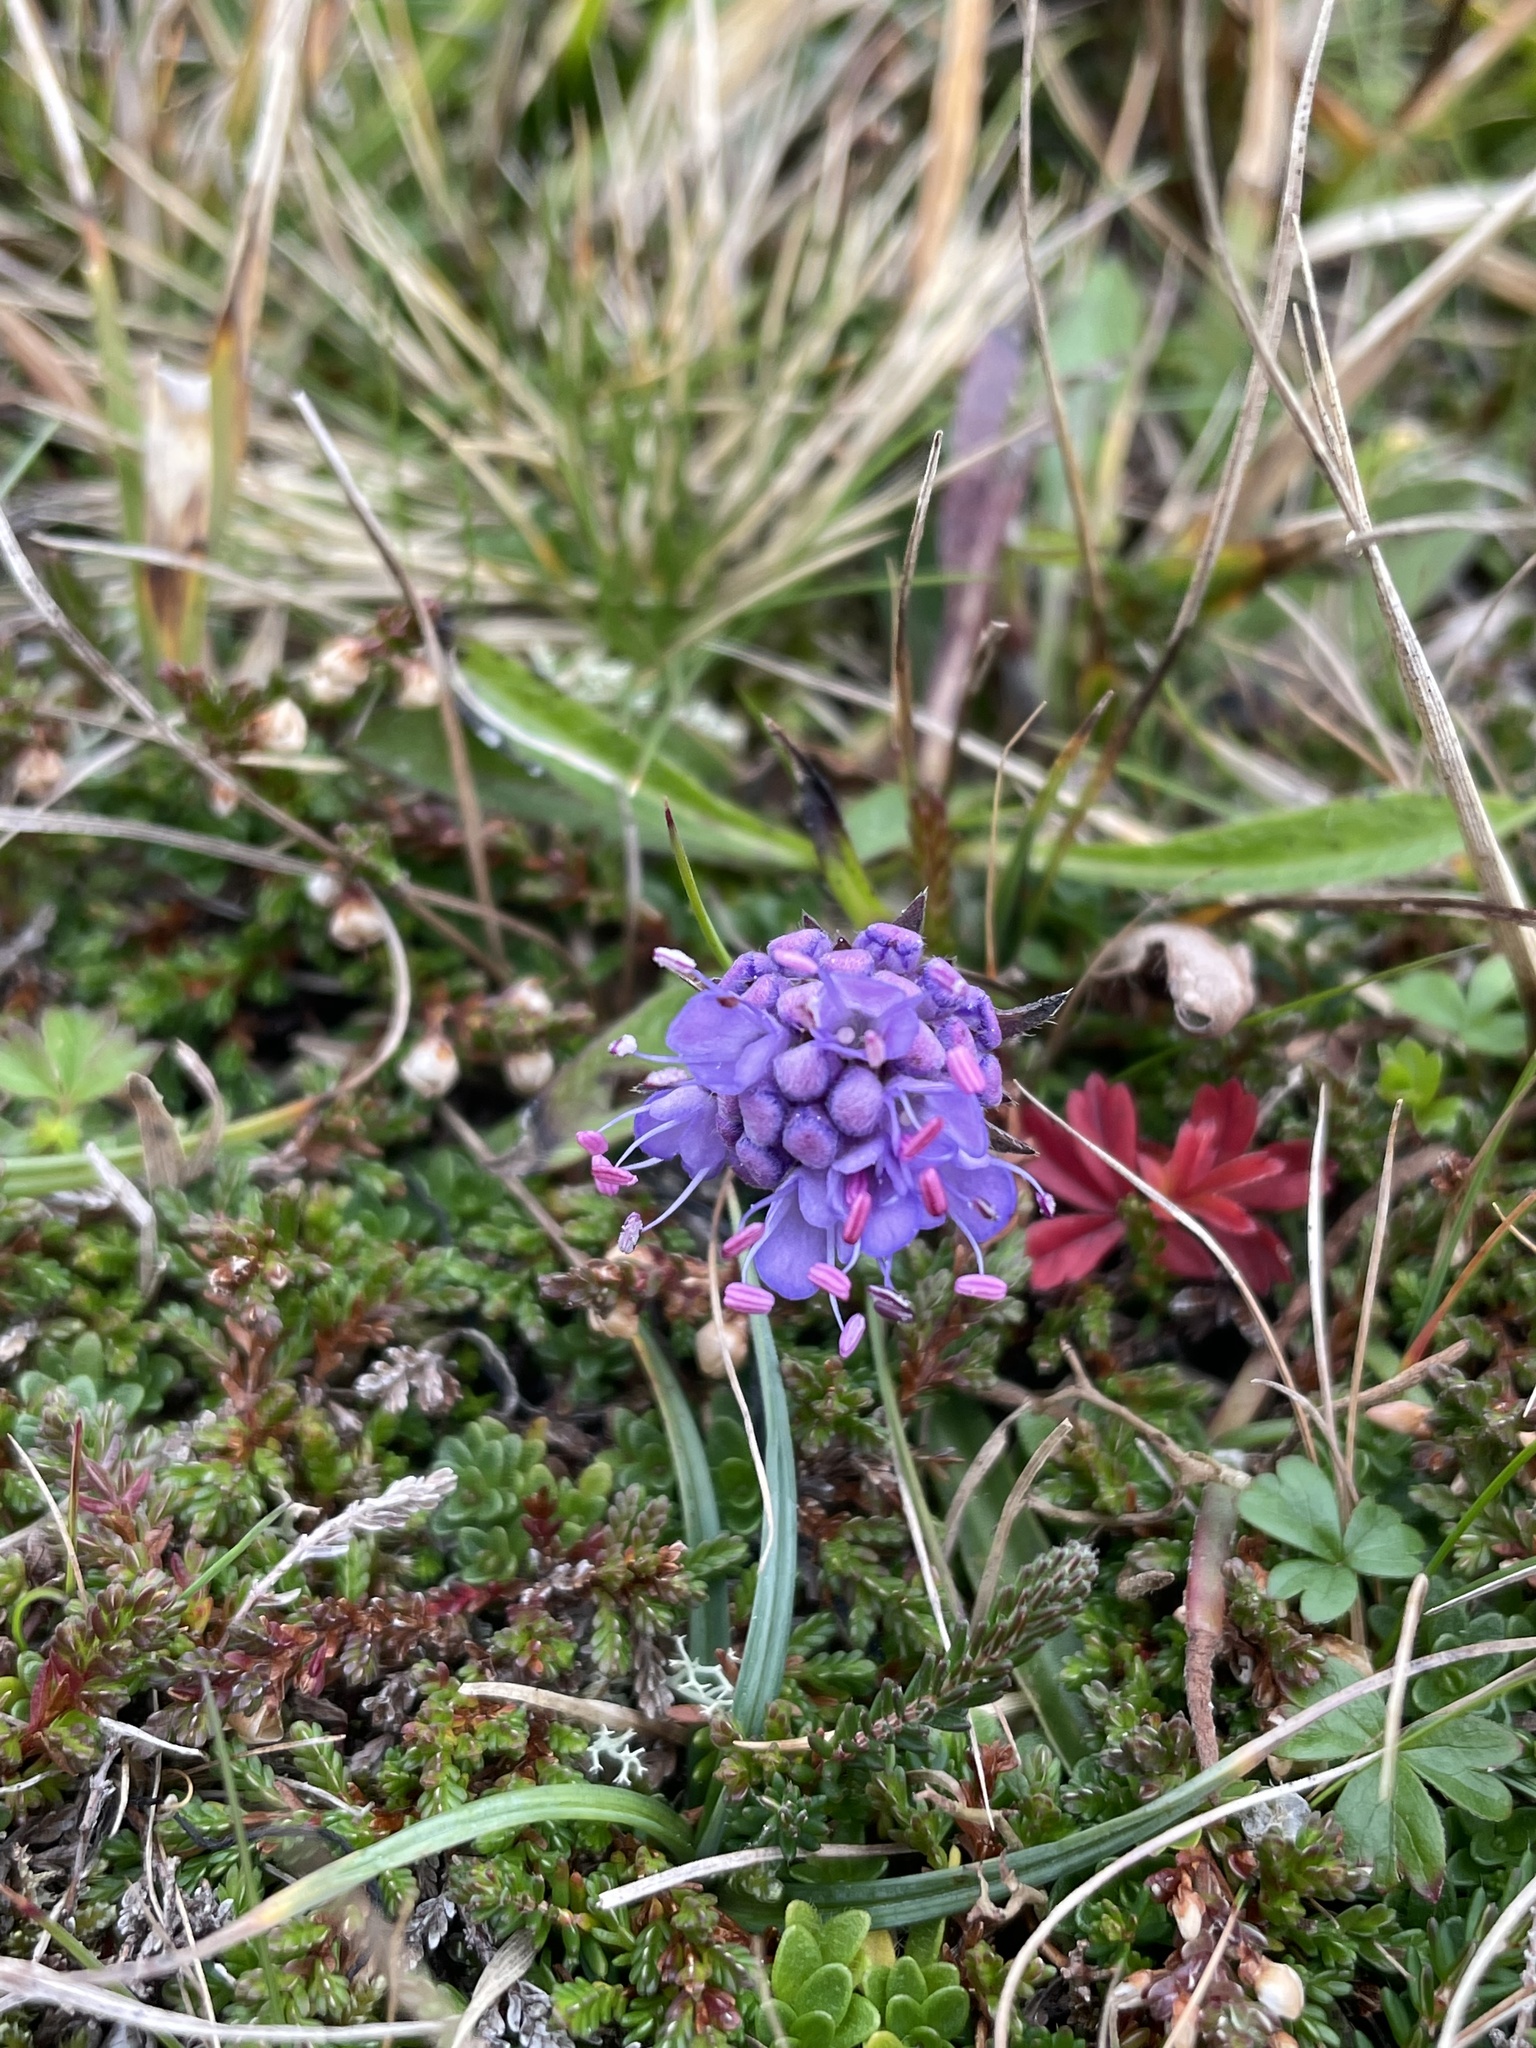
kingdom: Plantae
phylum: Tracheophyta
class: Magnoliopsida
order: Dipsacales
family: Caprifoliaceae
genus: Succisa
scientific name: Succisa pratensis
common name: Devil's-bit
